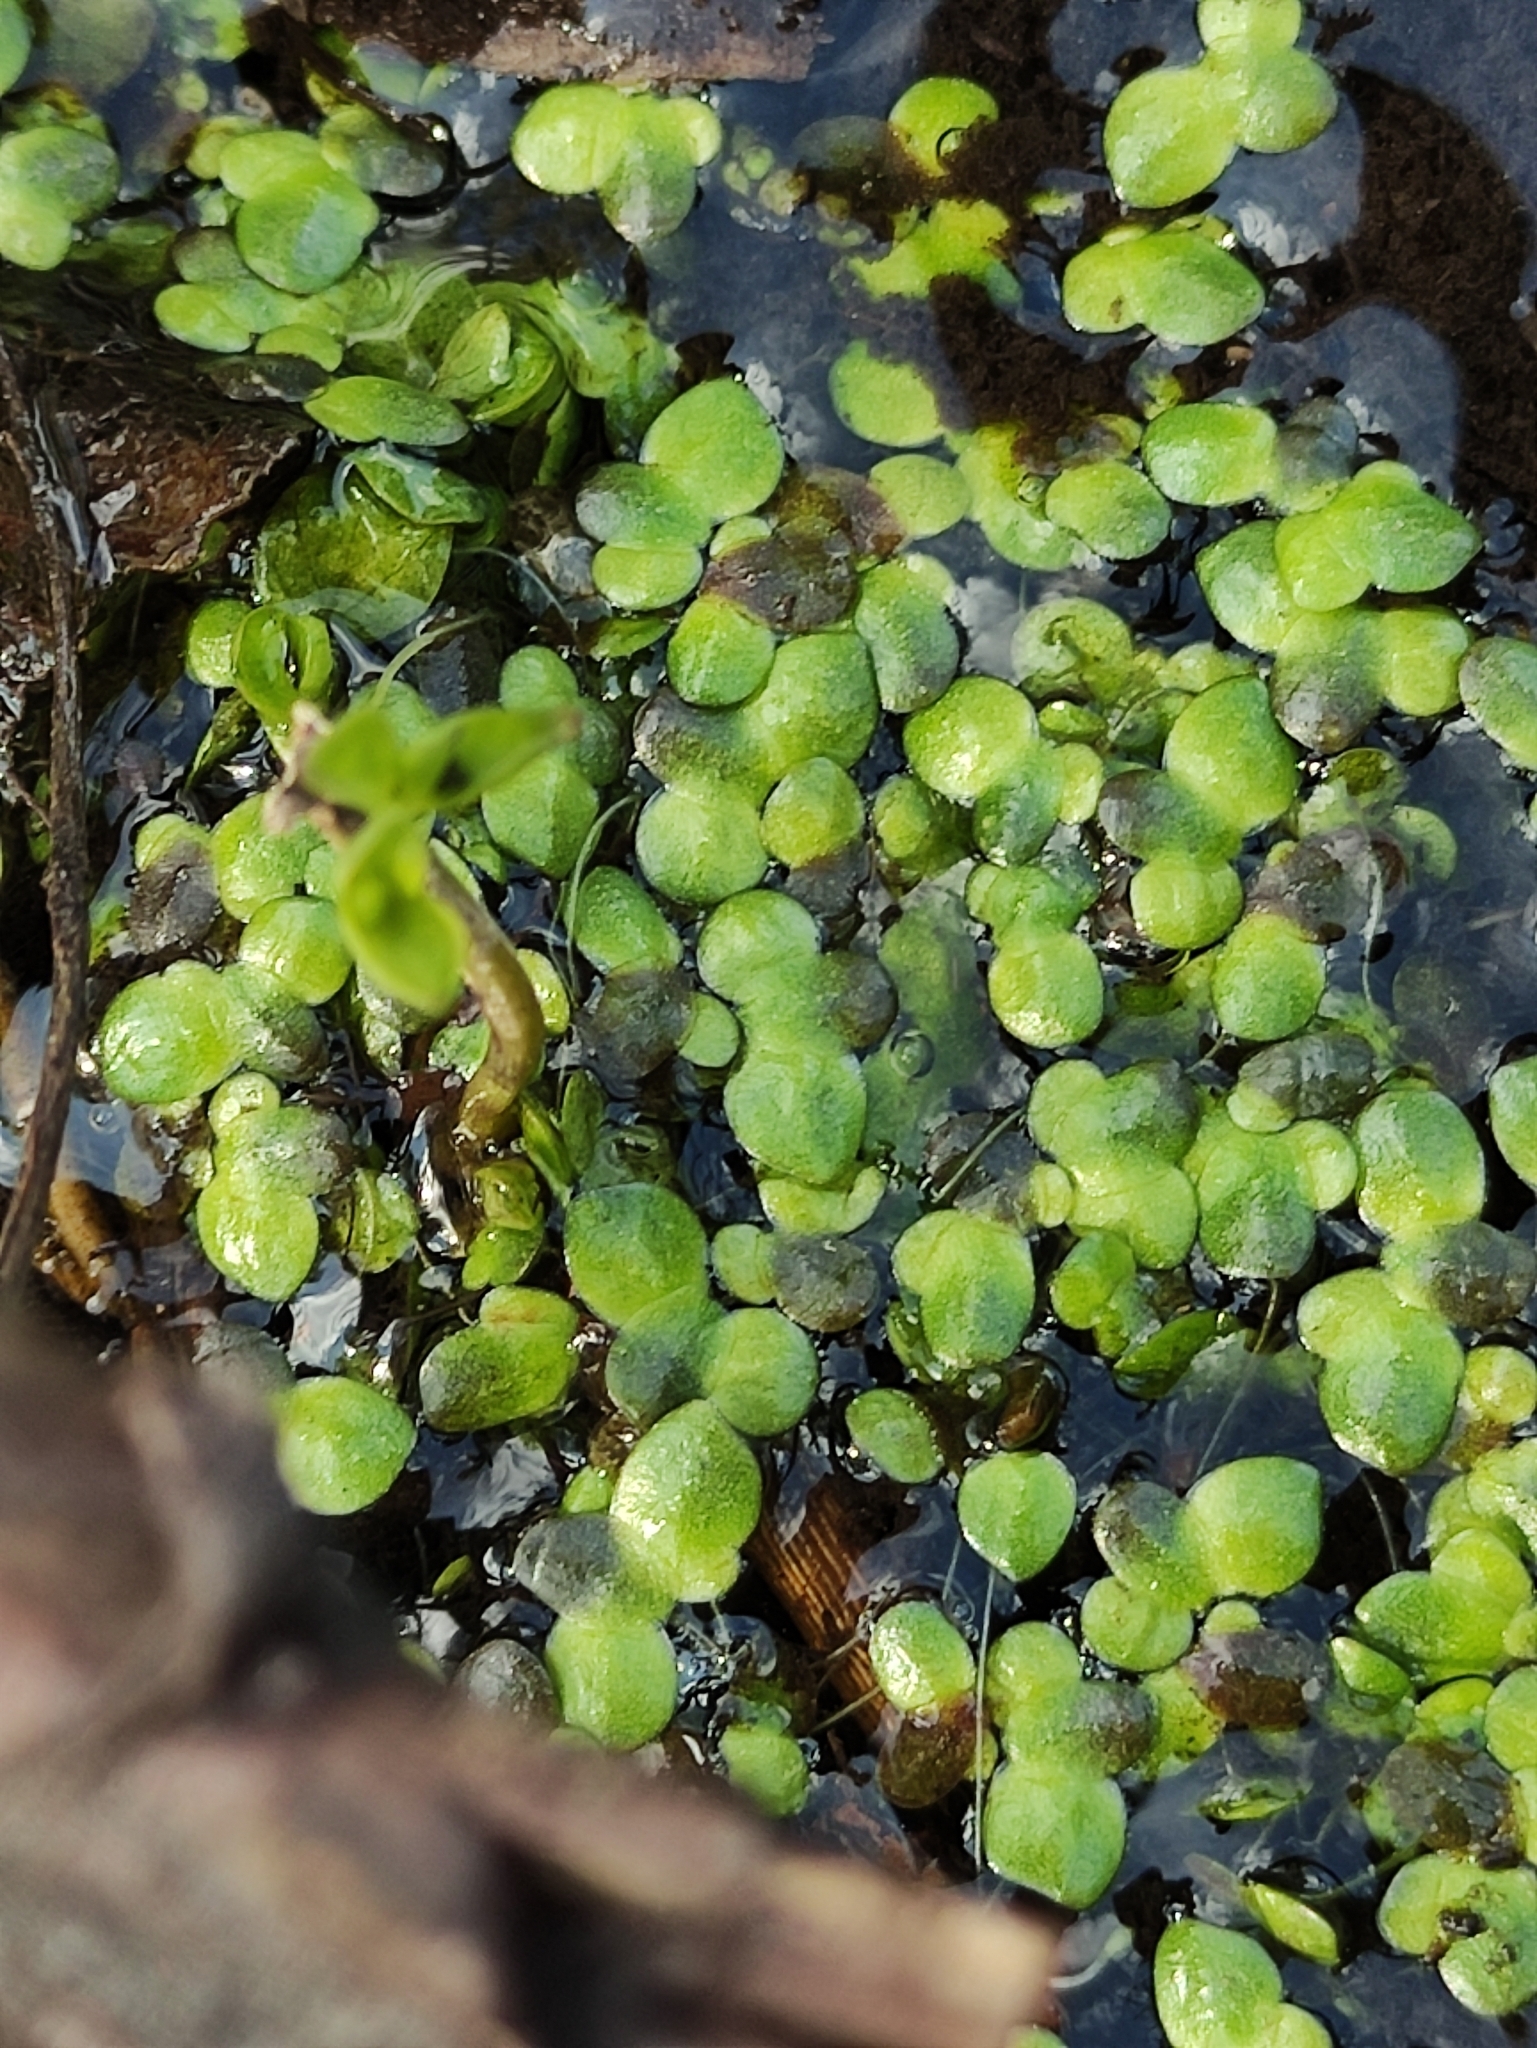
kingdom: Plantae
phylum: Tracheophyta
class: Liliopsida
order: Alismatales
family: Araceae
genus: Lemna
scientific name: Lemna turionifera
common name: Perennial duckweed
